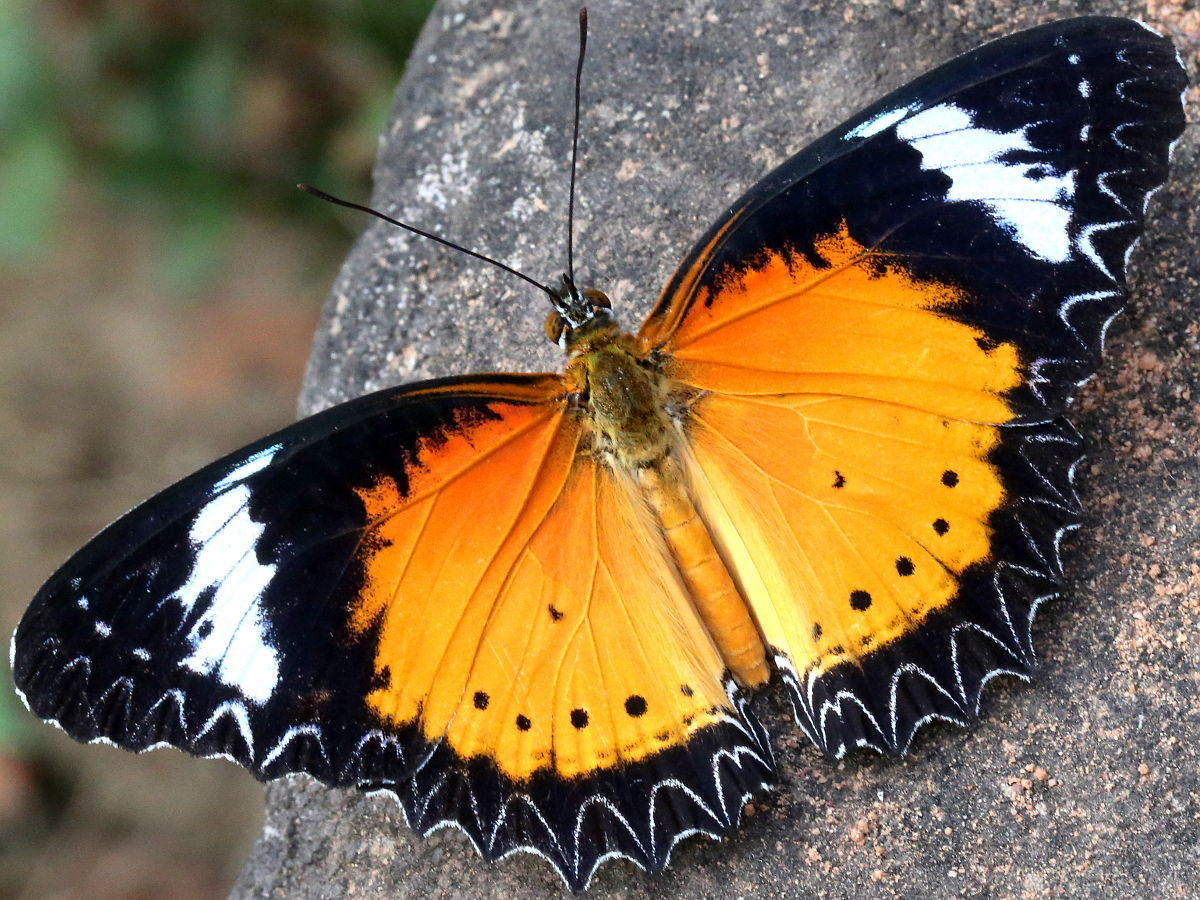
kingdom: Animalia
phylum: Arthropoda
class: Insecta
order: Lepidoptera
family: Nymphalidae
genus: Cethosia
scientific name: Cethosia cyane
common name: Leopard lacewing butterfly
